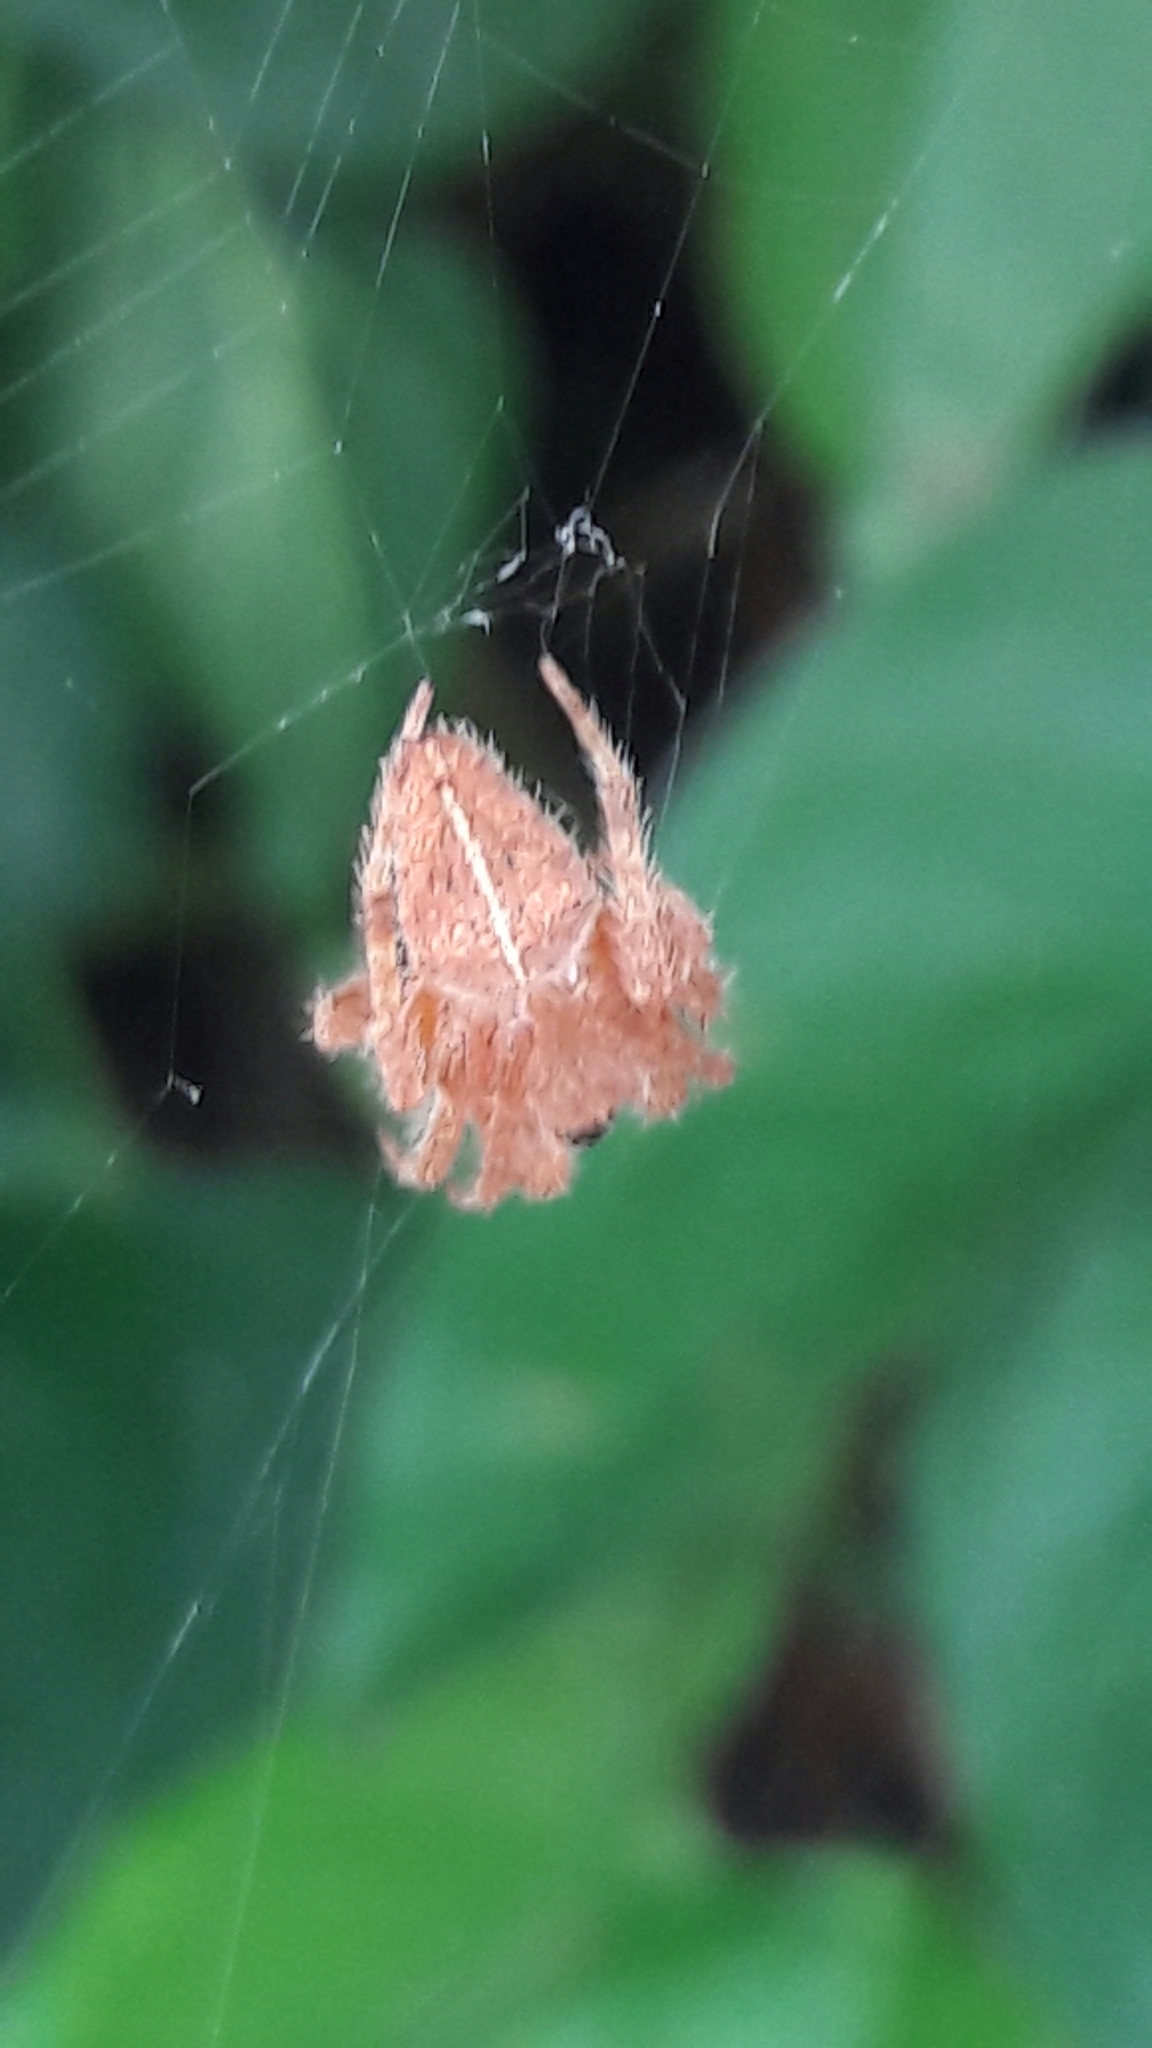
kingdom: Animalia
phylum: Arthropoda
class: Arachnida
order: Araneae
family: Araneidae
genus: Eriophora
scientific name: Eriophora edax
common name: Orb weavers
